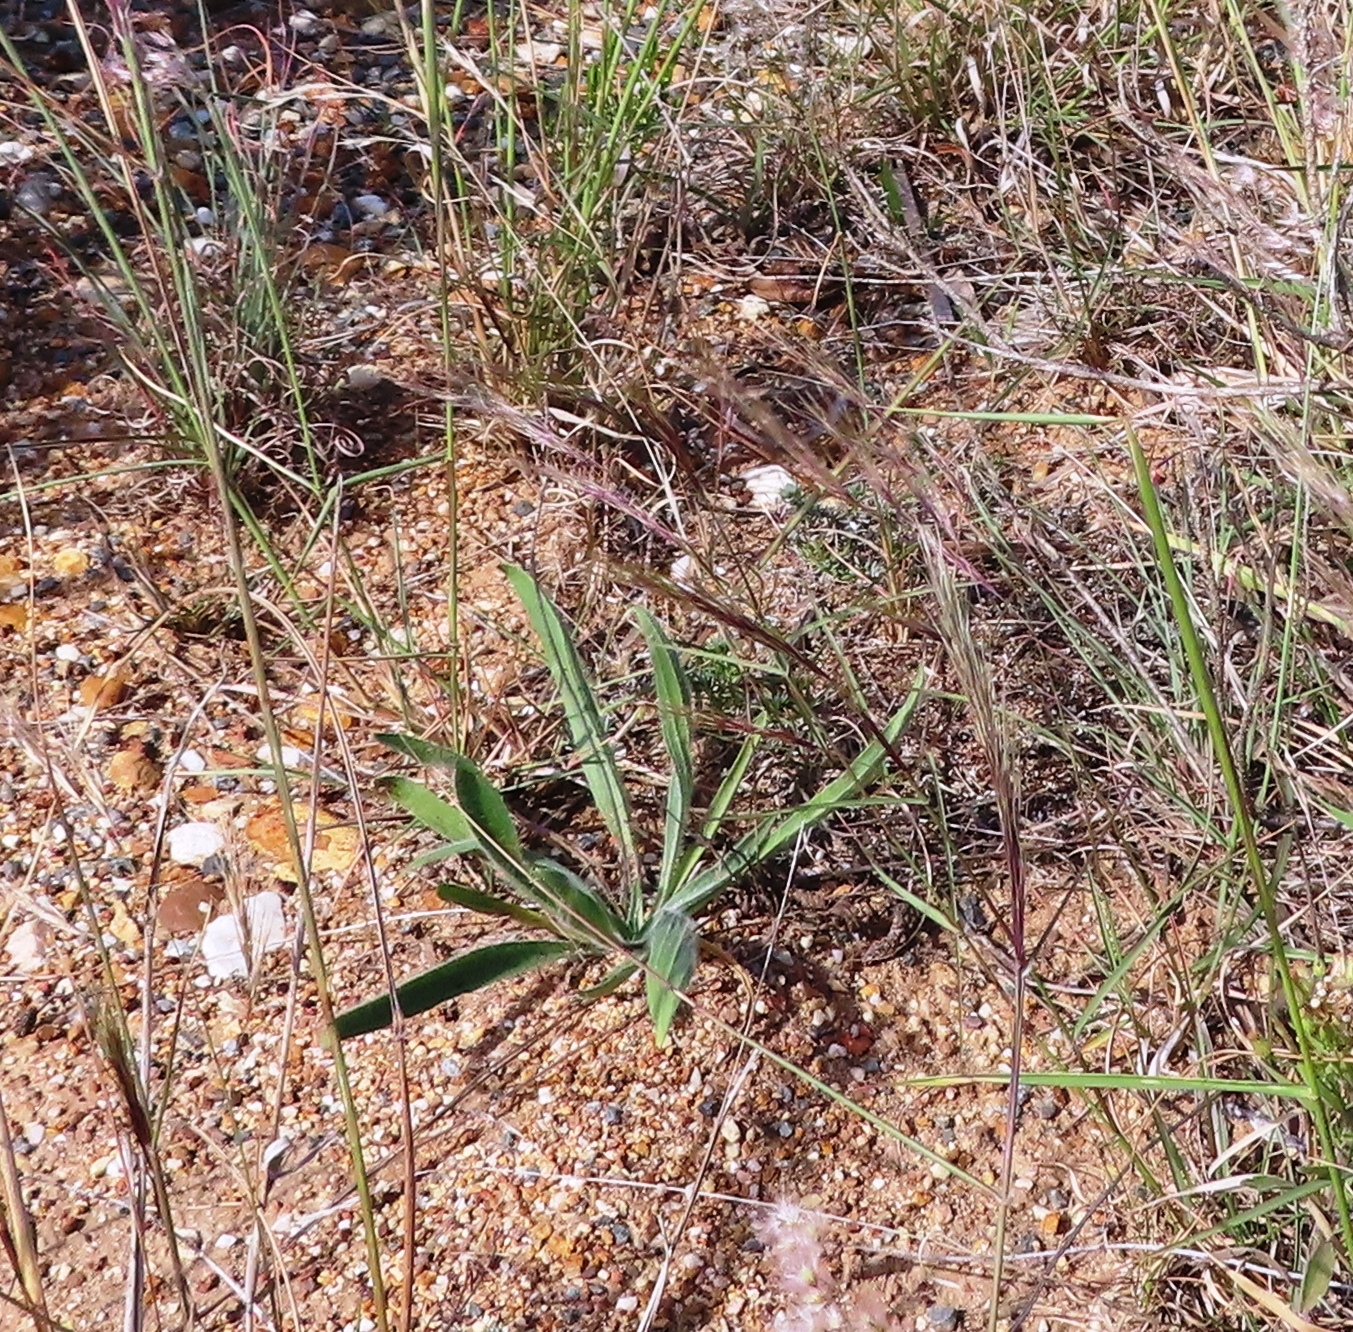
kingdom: Plantae
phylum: Tracheophyta
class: Magnoliopsida
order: Lamiales
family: Plantaginaceae
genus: Plantago
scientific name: Plantago lanceolata
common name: Ribwort plantain
